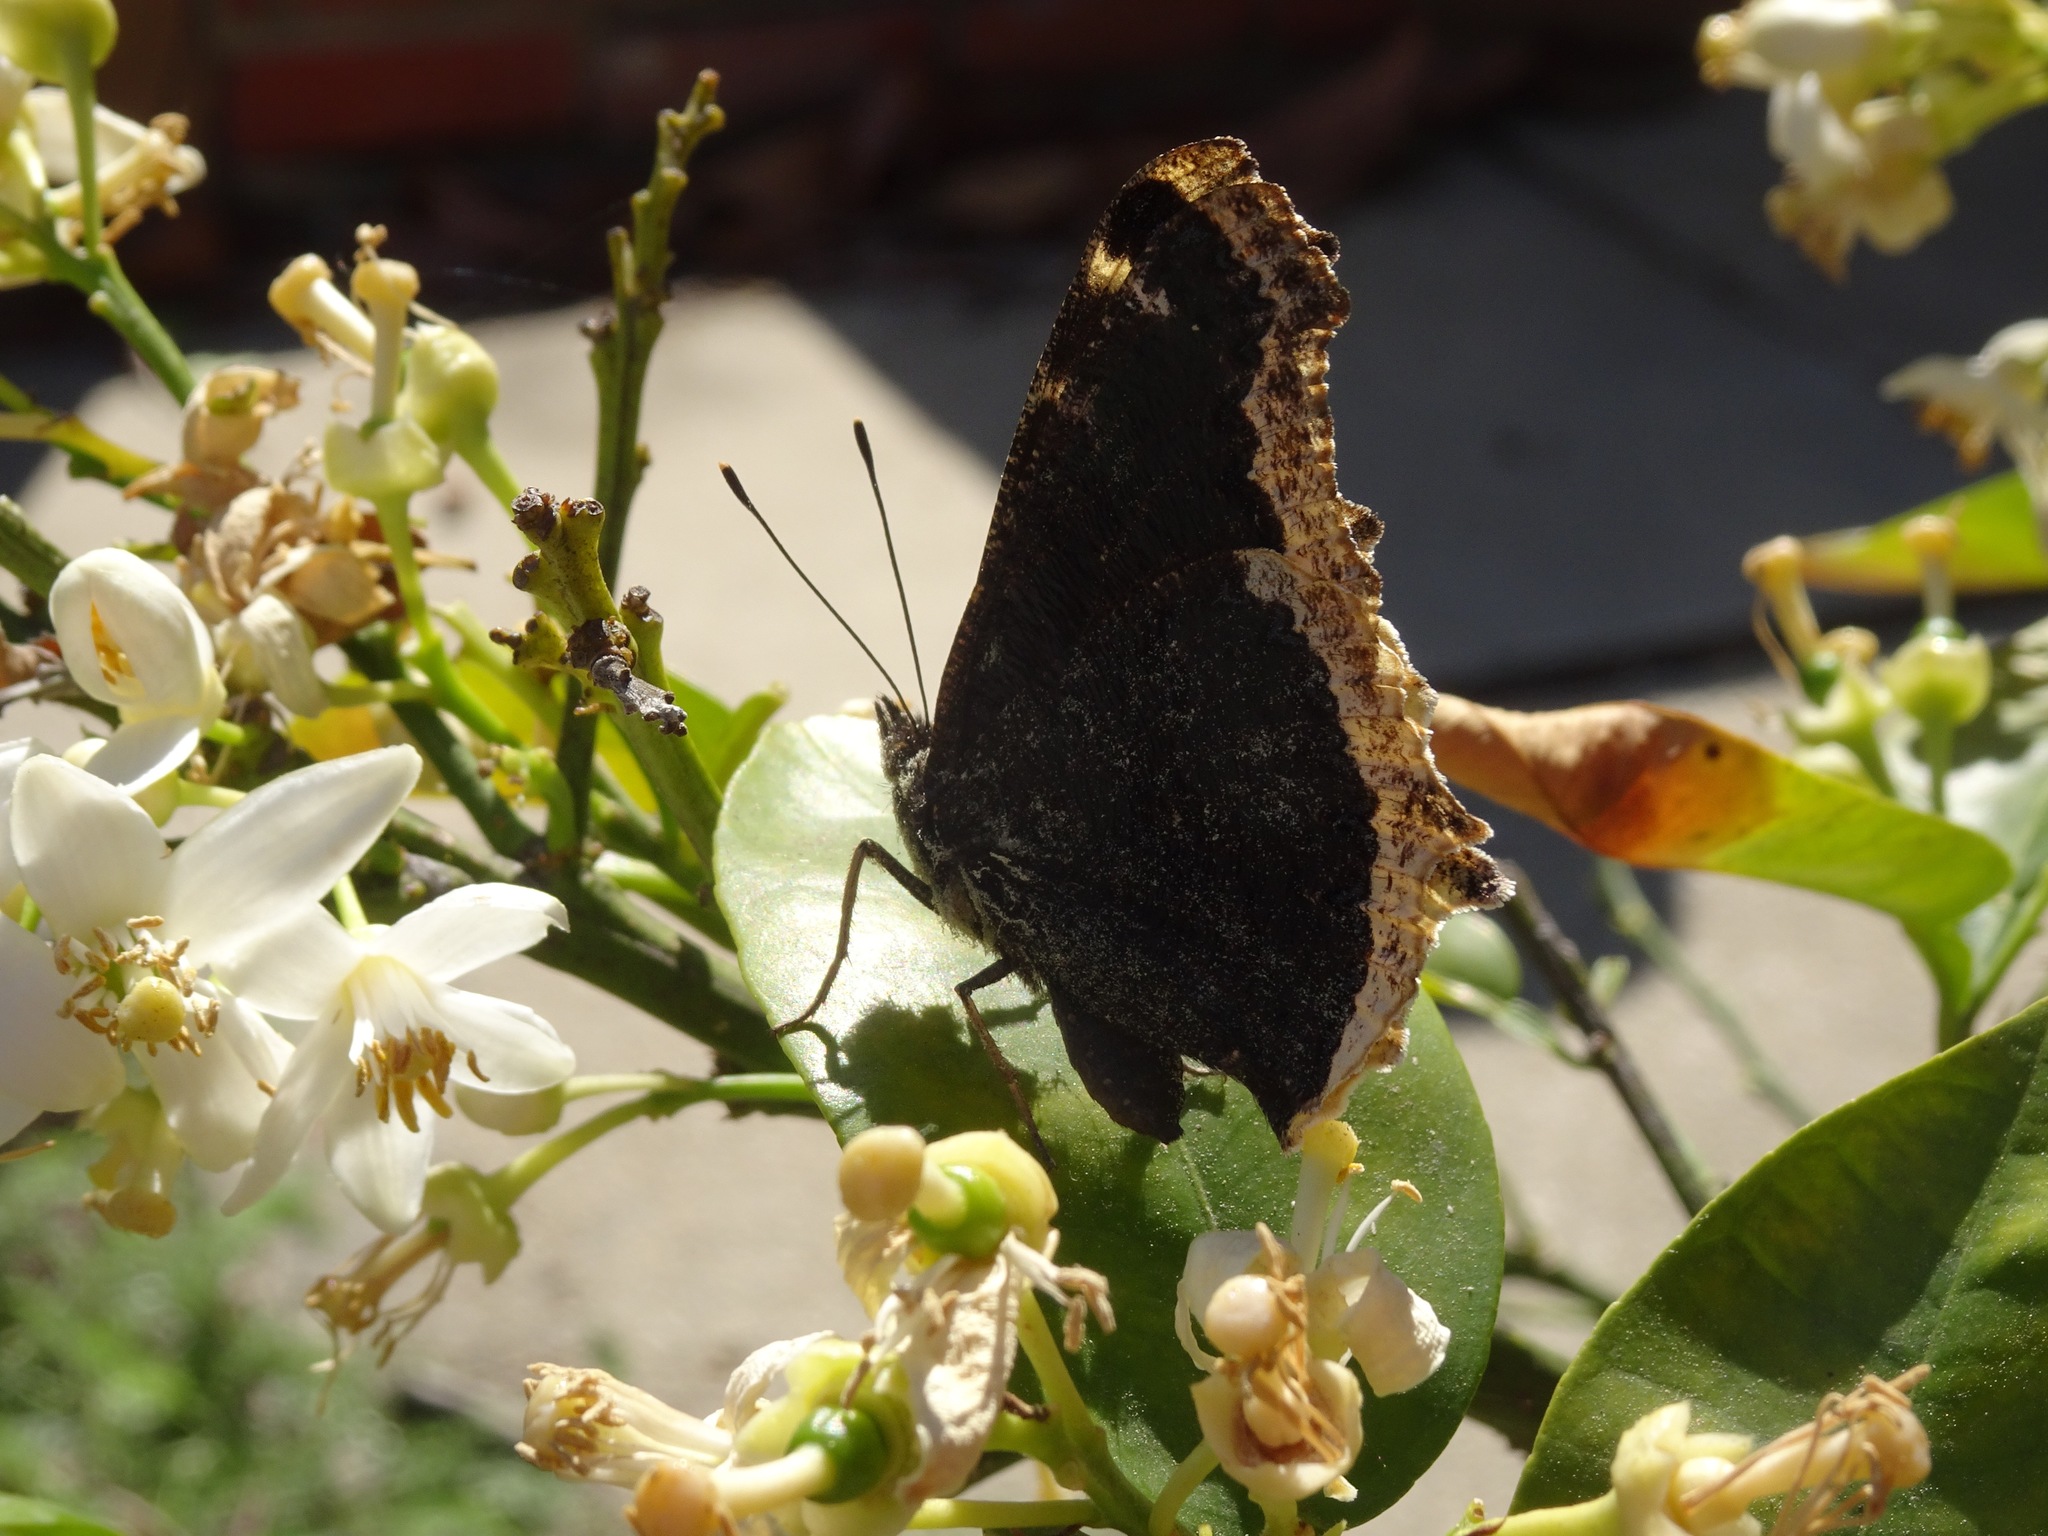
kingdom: Animalia
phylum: Arthropoda
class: Insecta
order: Lepidoptera
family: Nymphalidae
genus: Nymphalis
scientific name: Nymphalis antiopa
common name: Camberwell beauty
